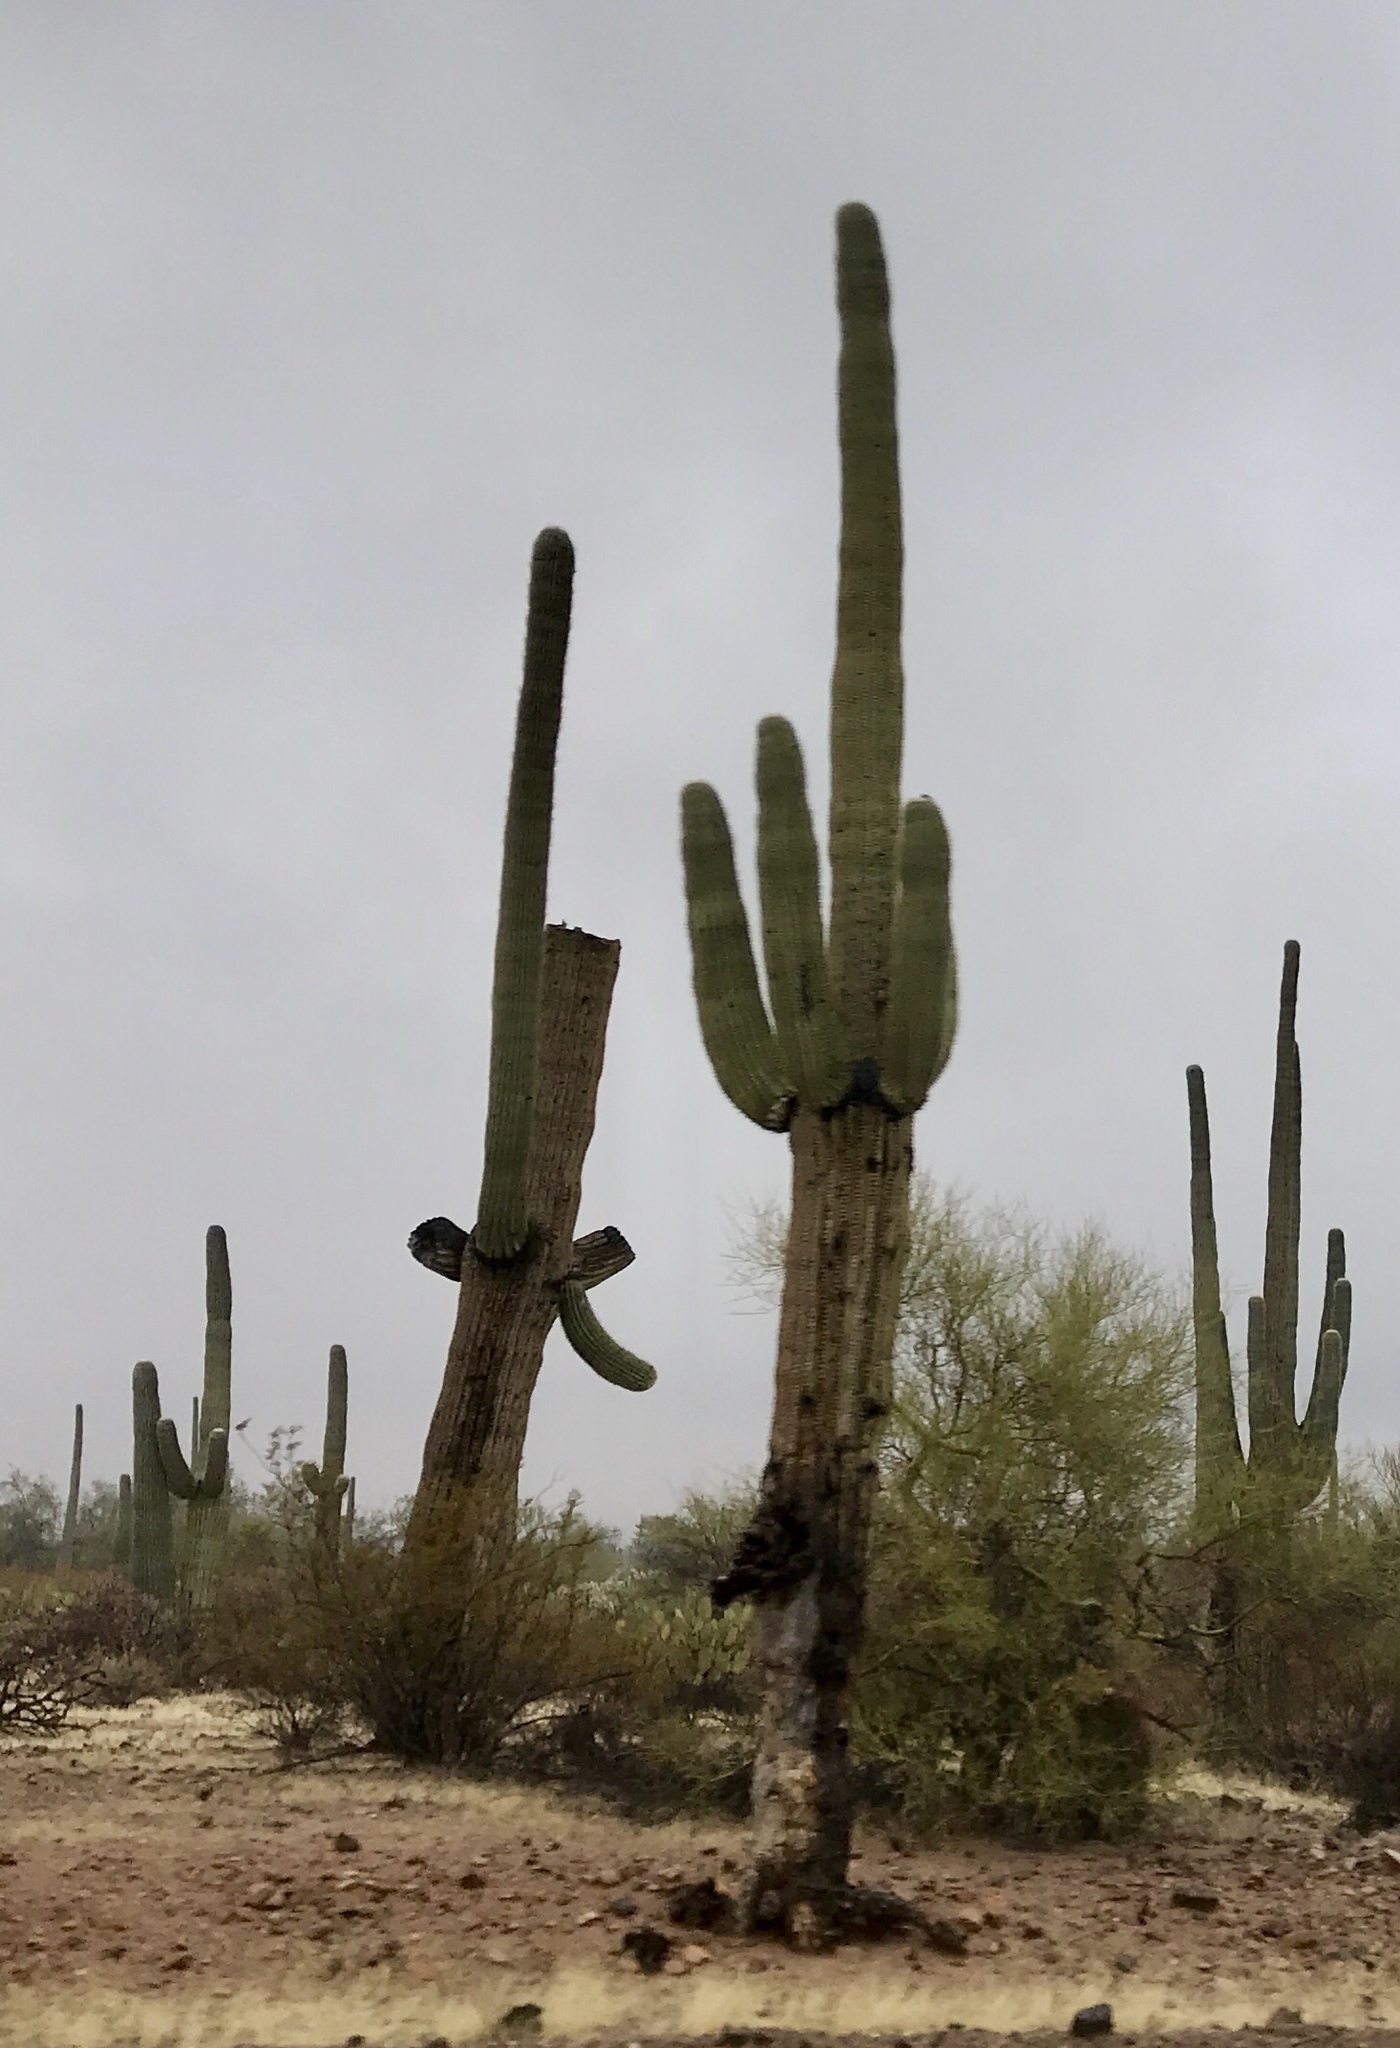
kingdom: Plantae
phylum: Tracheophyta
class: Magnoliopsida
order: Caryophyllales
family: Cactaceae
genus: Carnegiea
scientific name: Carnegiea gigantea
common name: Saguaro
